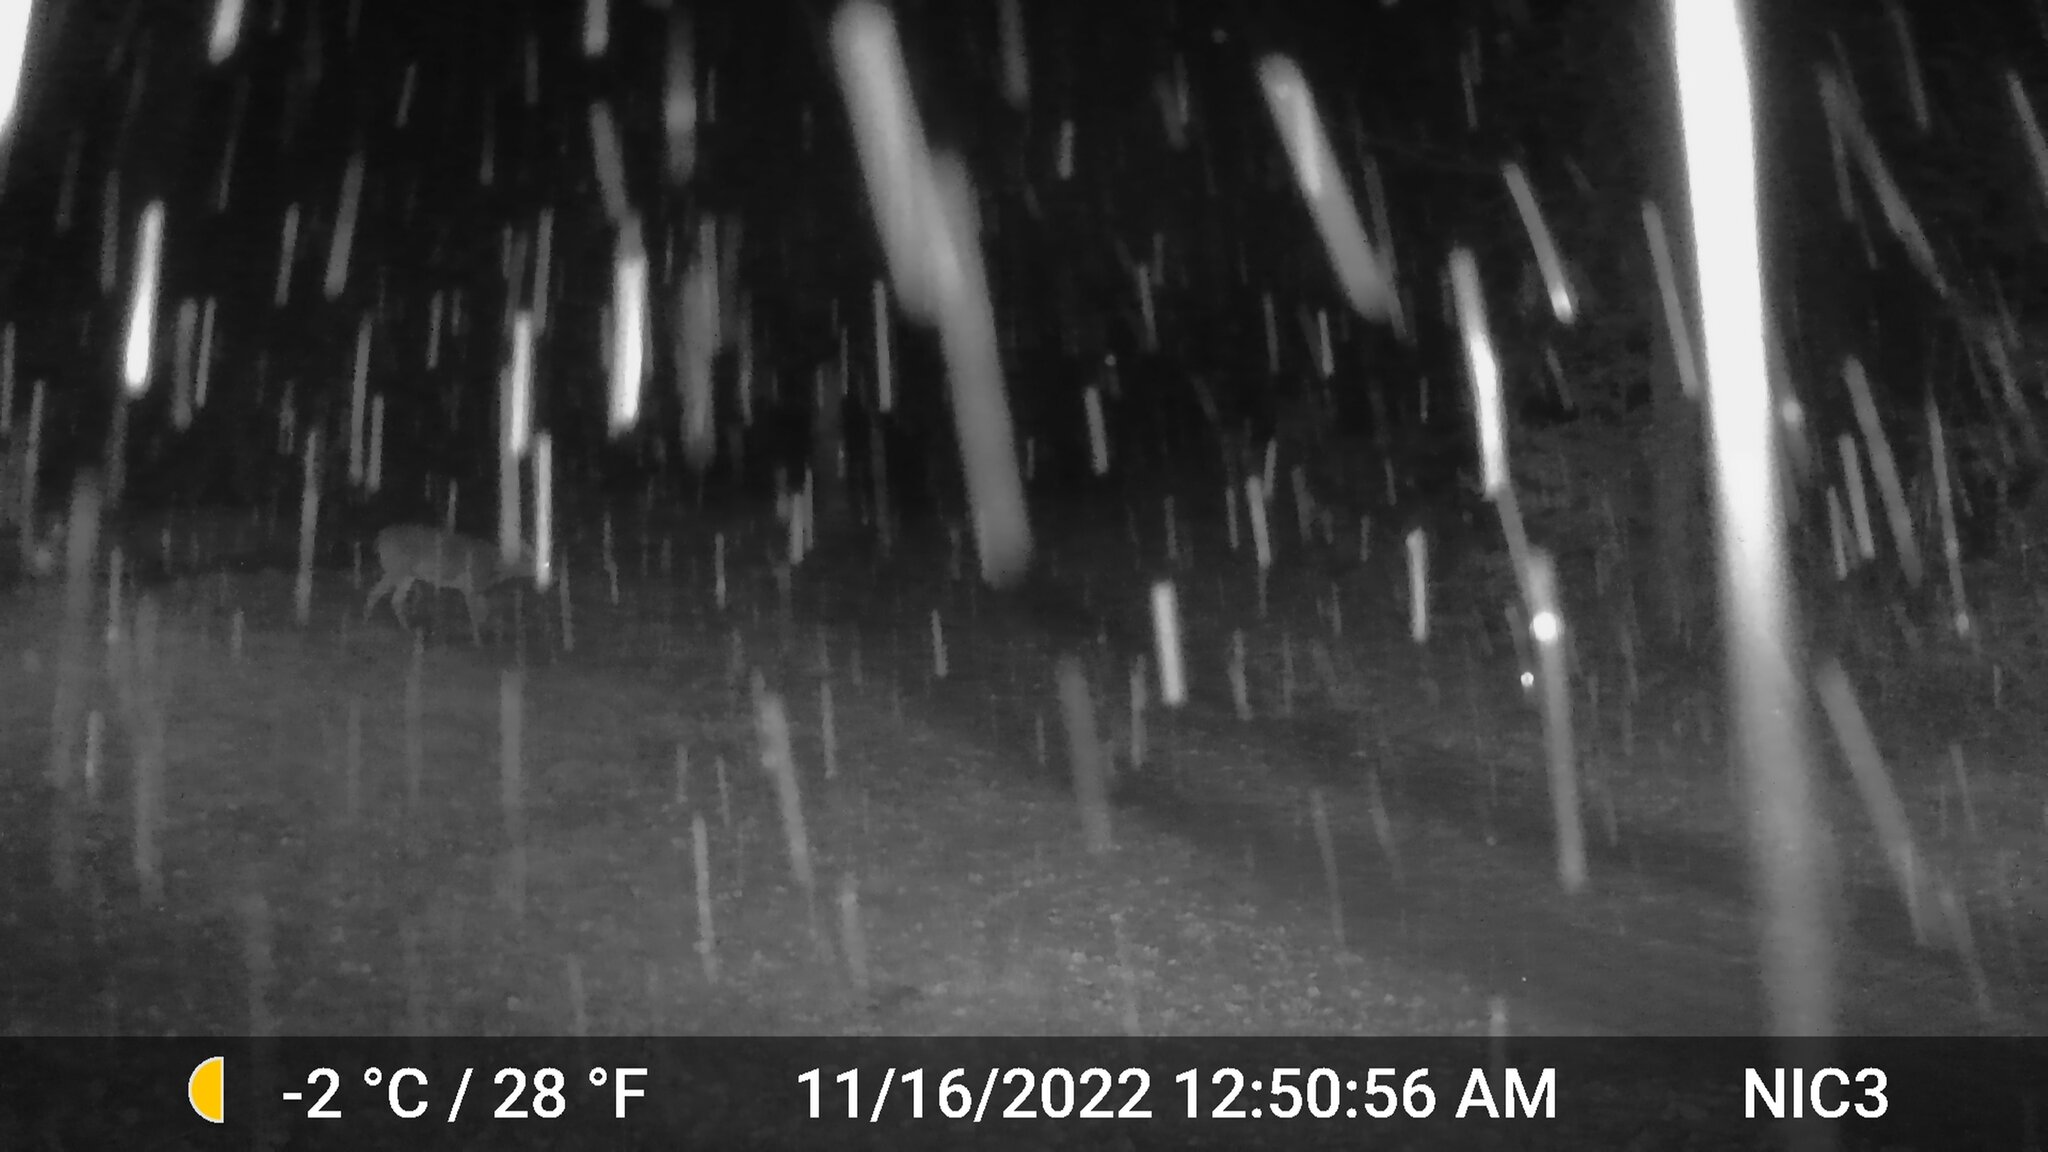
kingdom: Animalia
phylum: Chordata
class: Mammalia
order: Artiodactyla
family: Cervidae
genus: Odocoileus
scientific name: Odocoileus virginianus
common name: White-tailed deer
